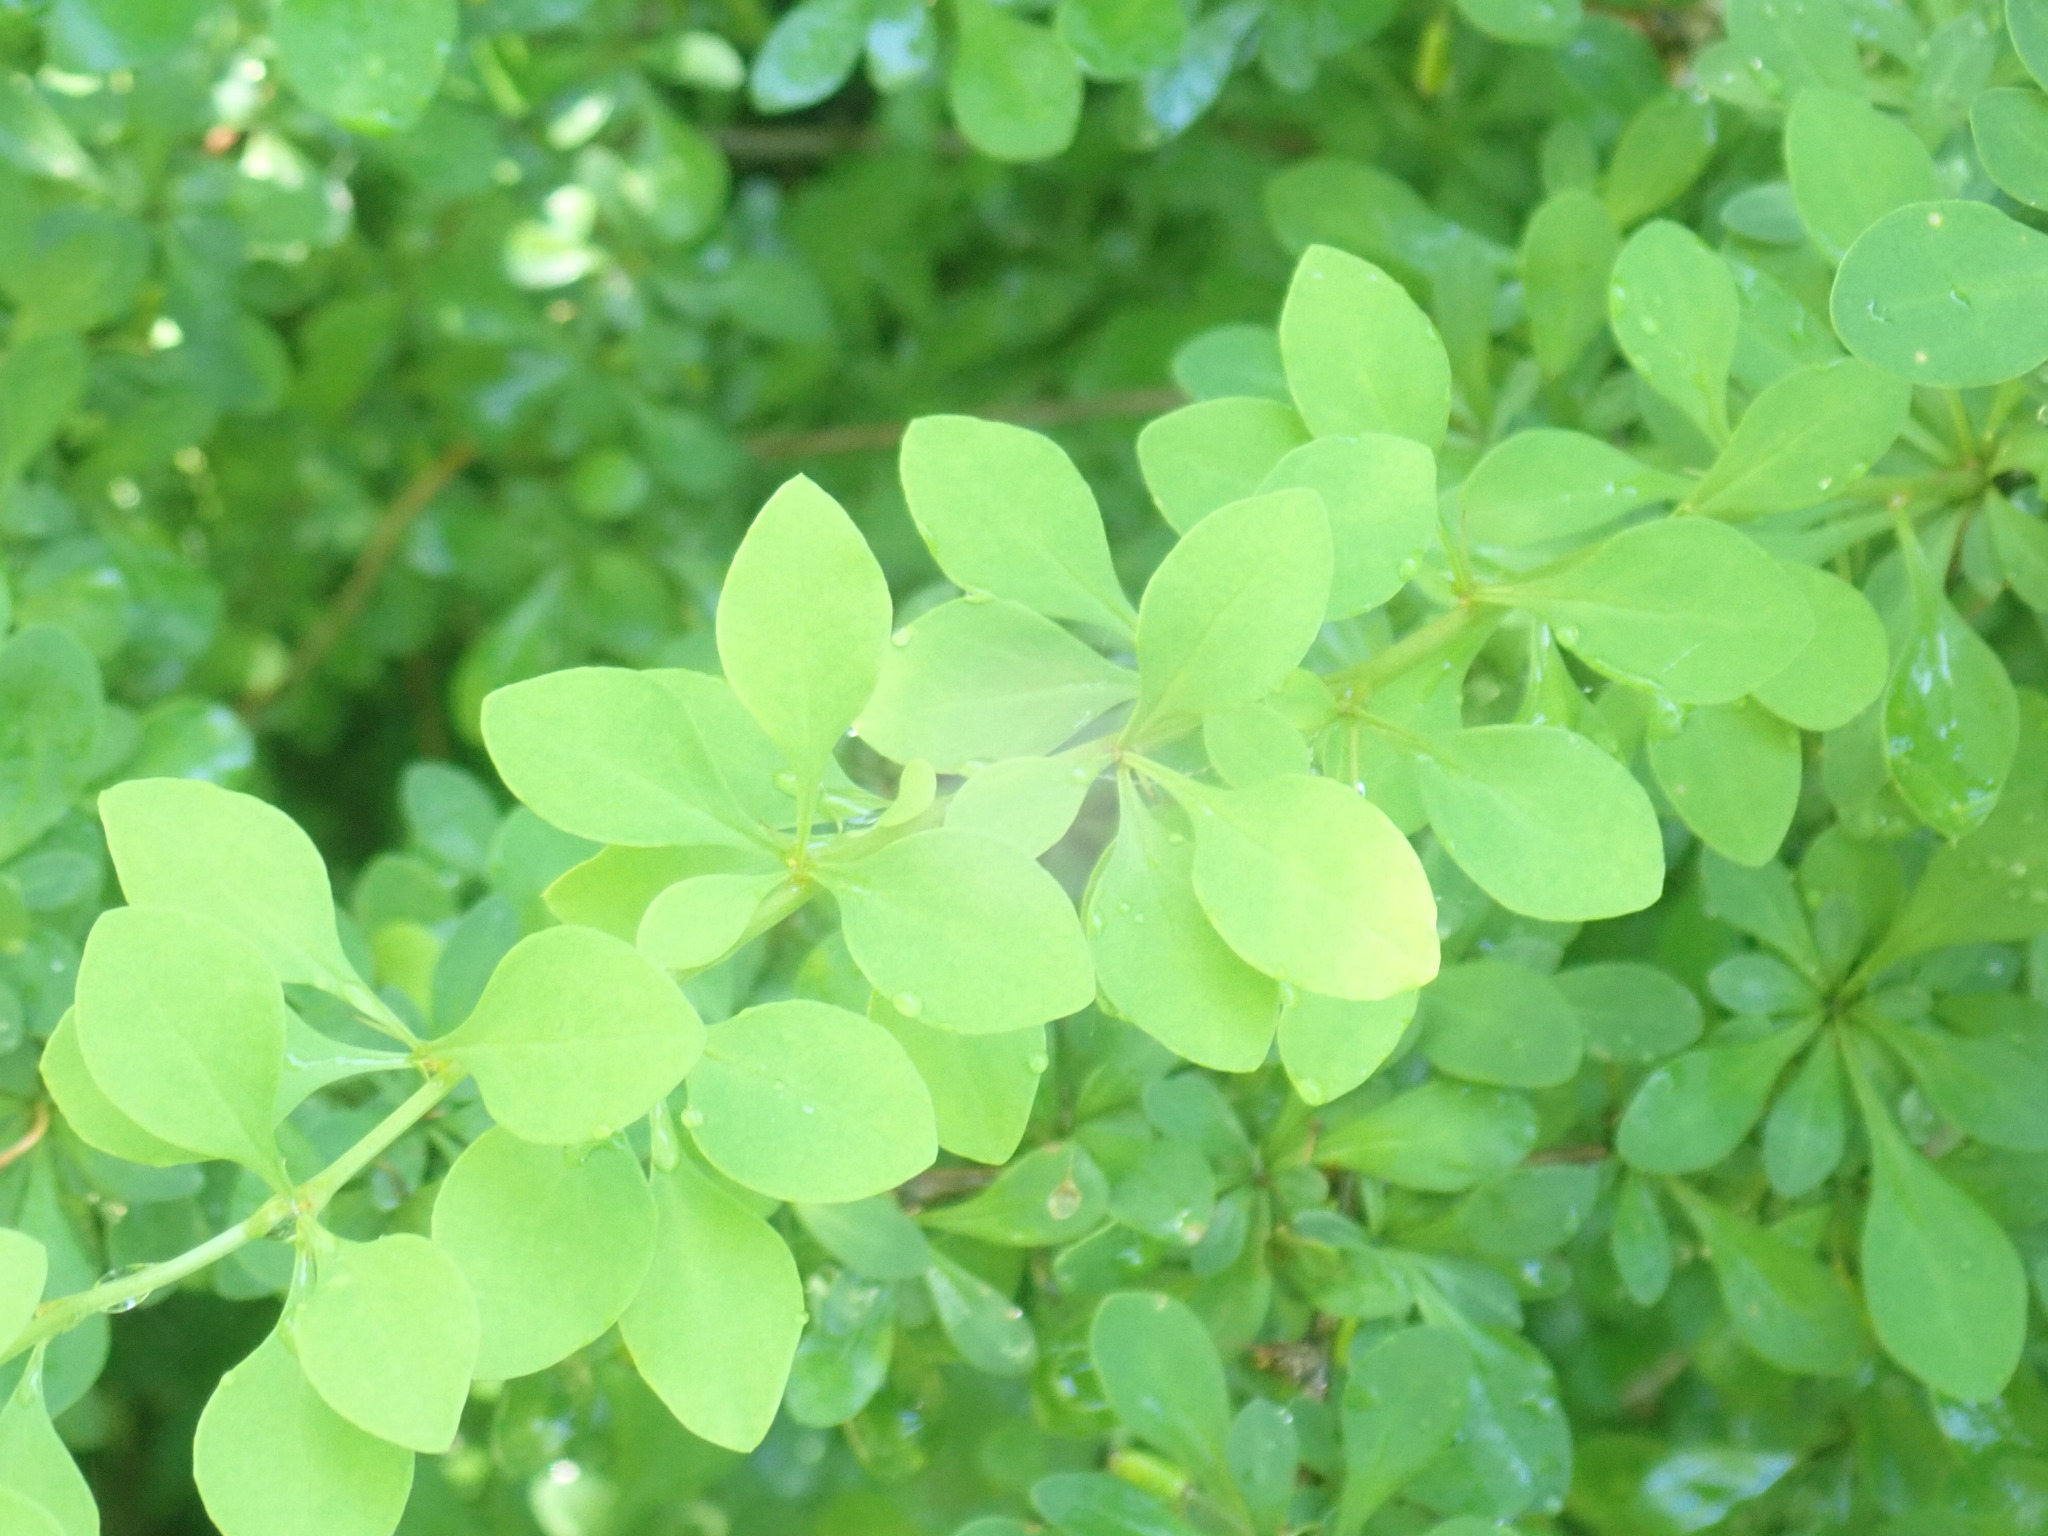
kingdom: Plantae
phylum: Tracheophyta
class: Magnoliopsida
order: Ranunculales
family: Berberidaceae
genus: Berberis
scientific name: Berberis thunbergii
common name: Japanese barberry
